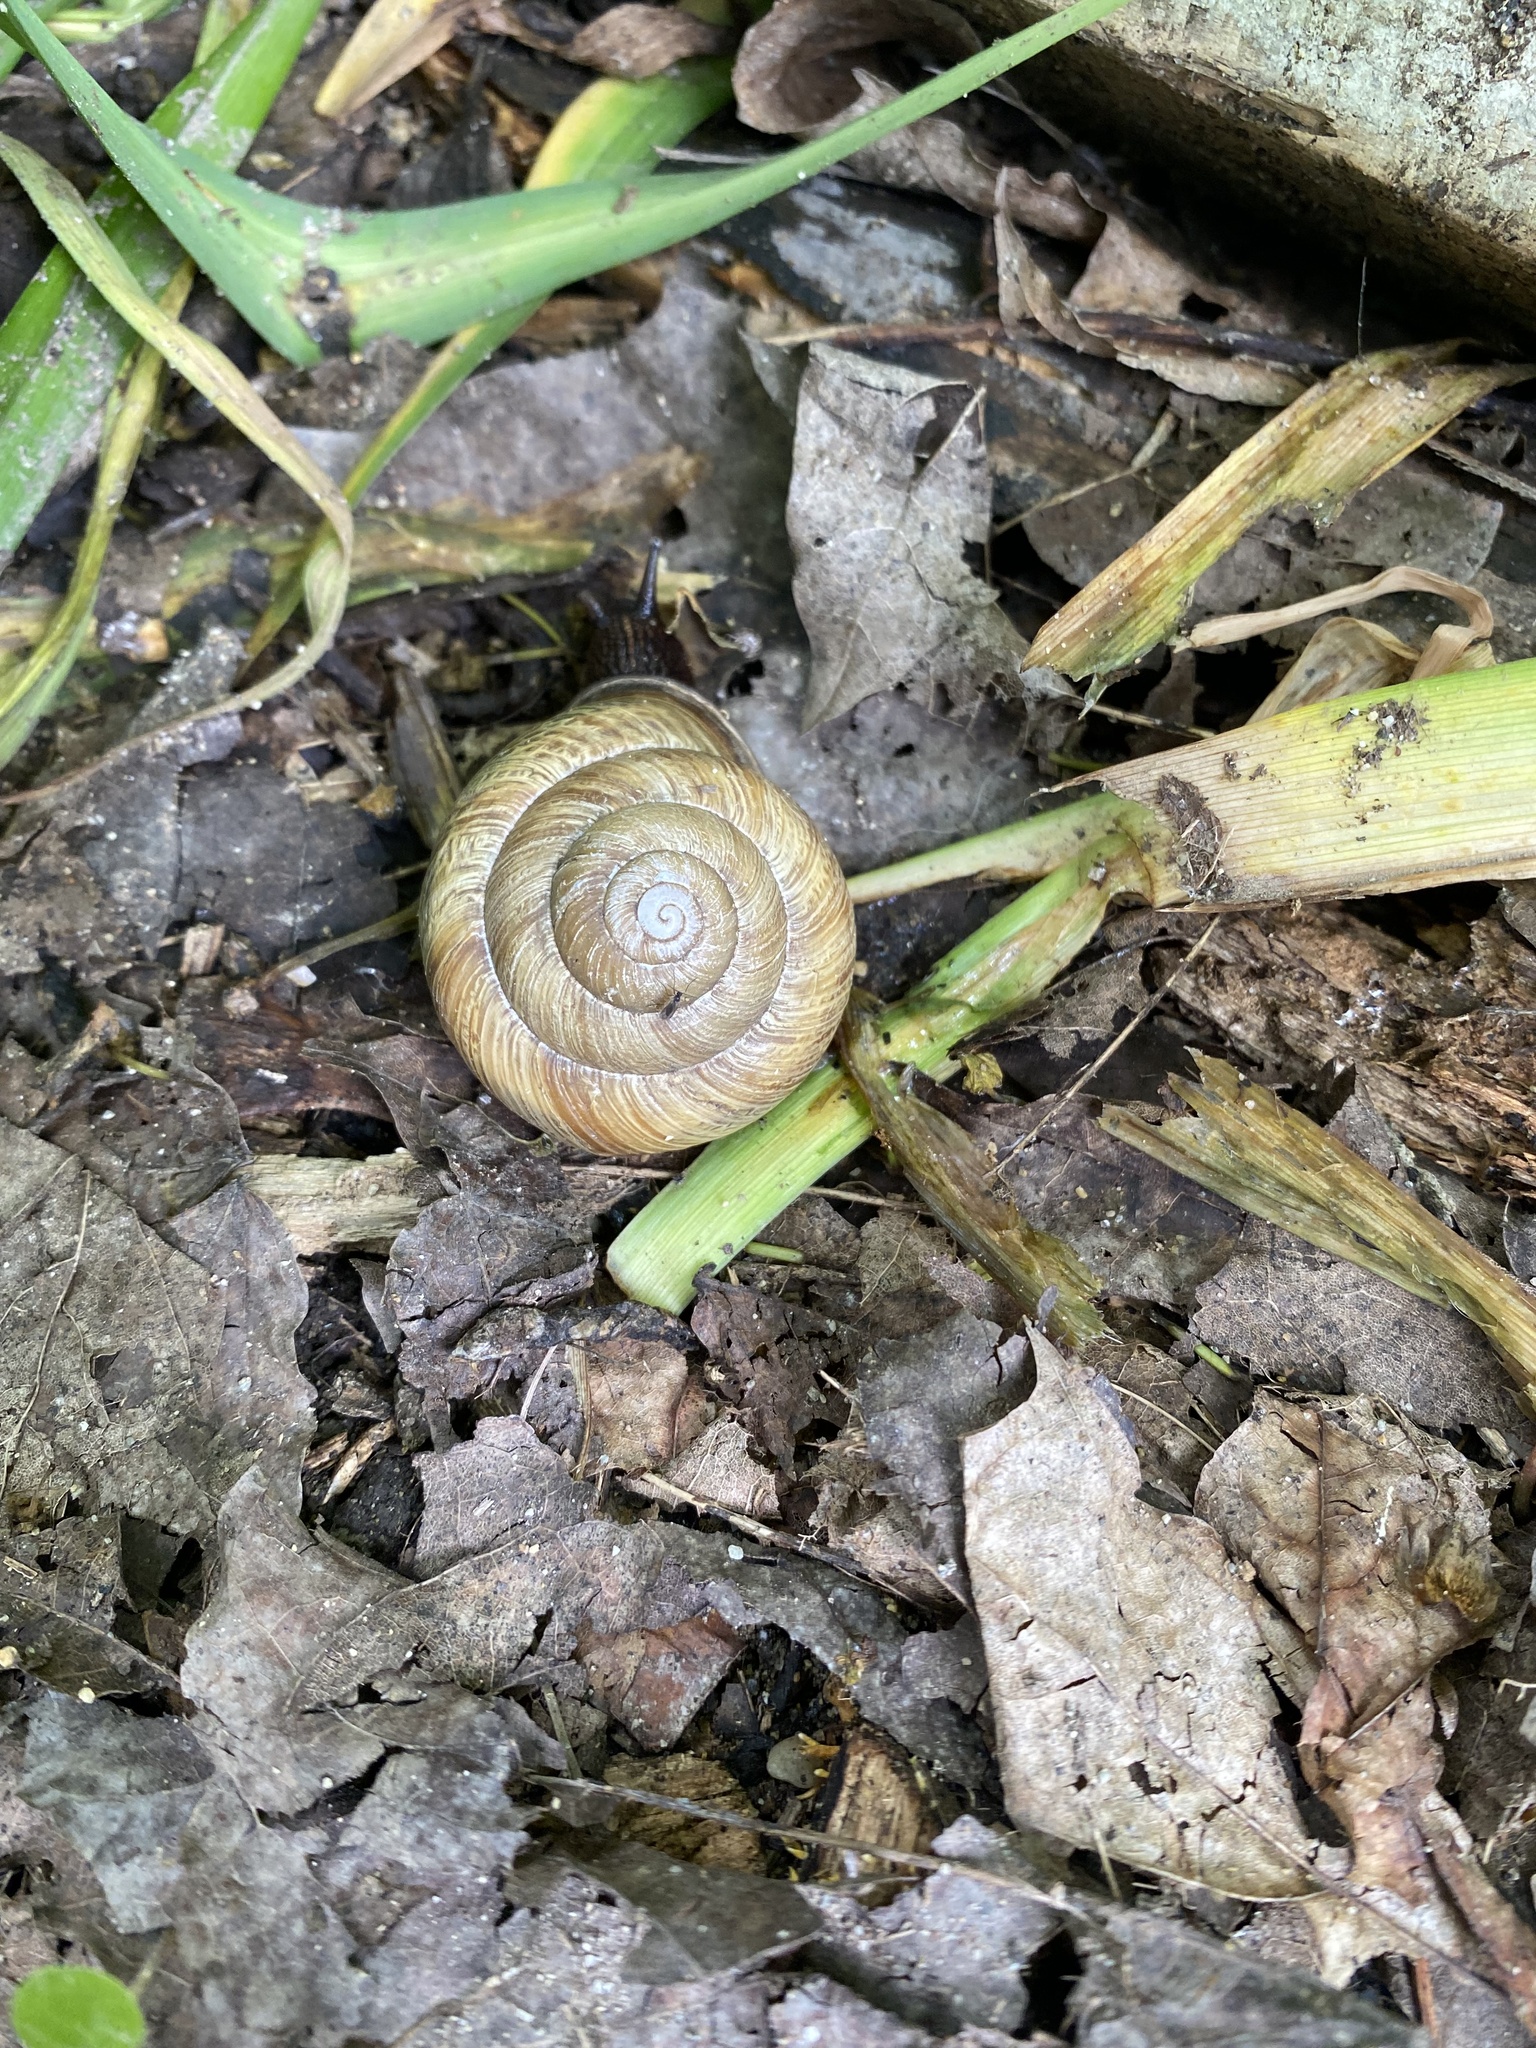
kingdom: Animalia
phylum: Mollusca
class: Gastropoda
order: Stylommatophora
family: Helicidae
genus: Caucasotachea
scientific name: Caucasotachea atrolabiata
